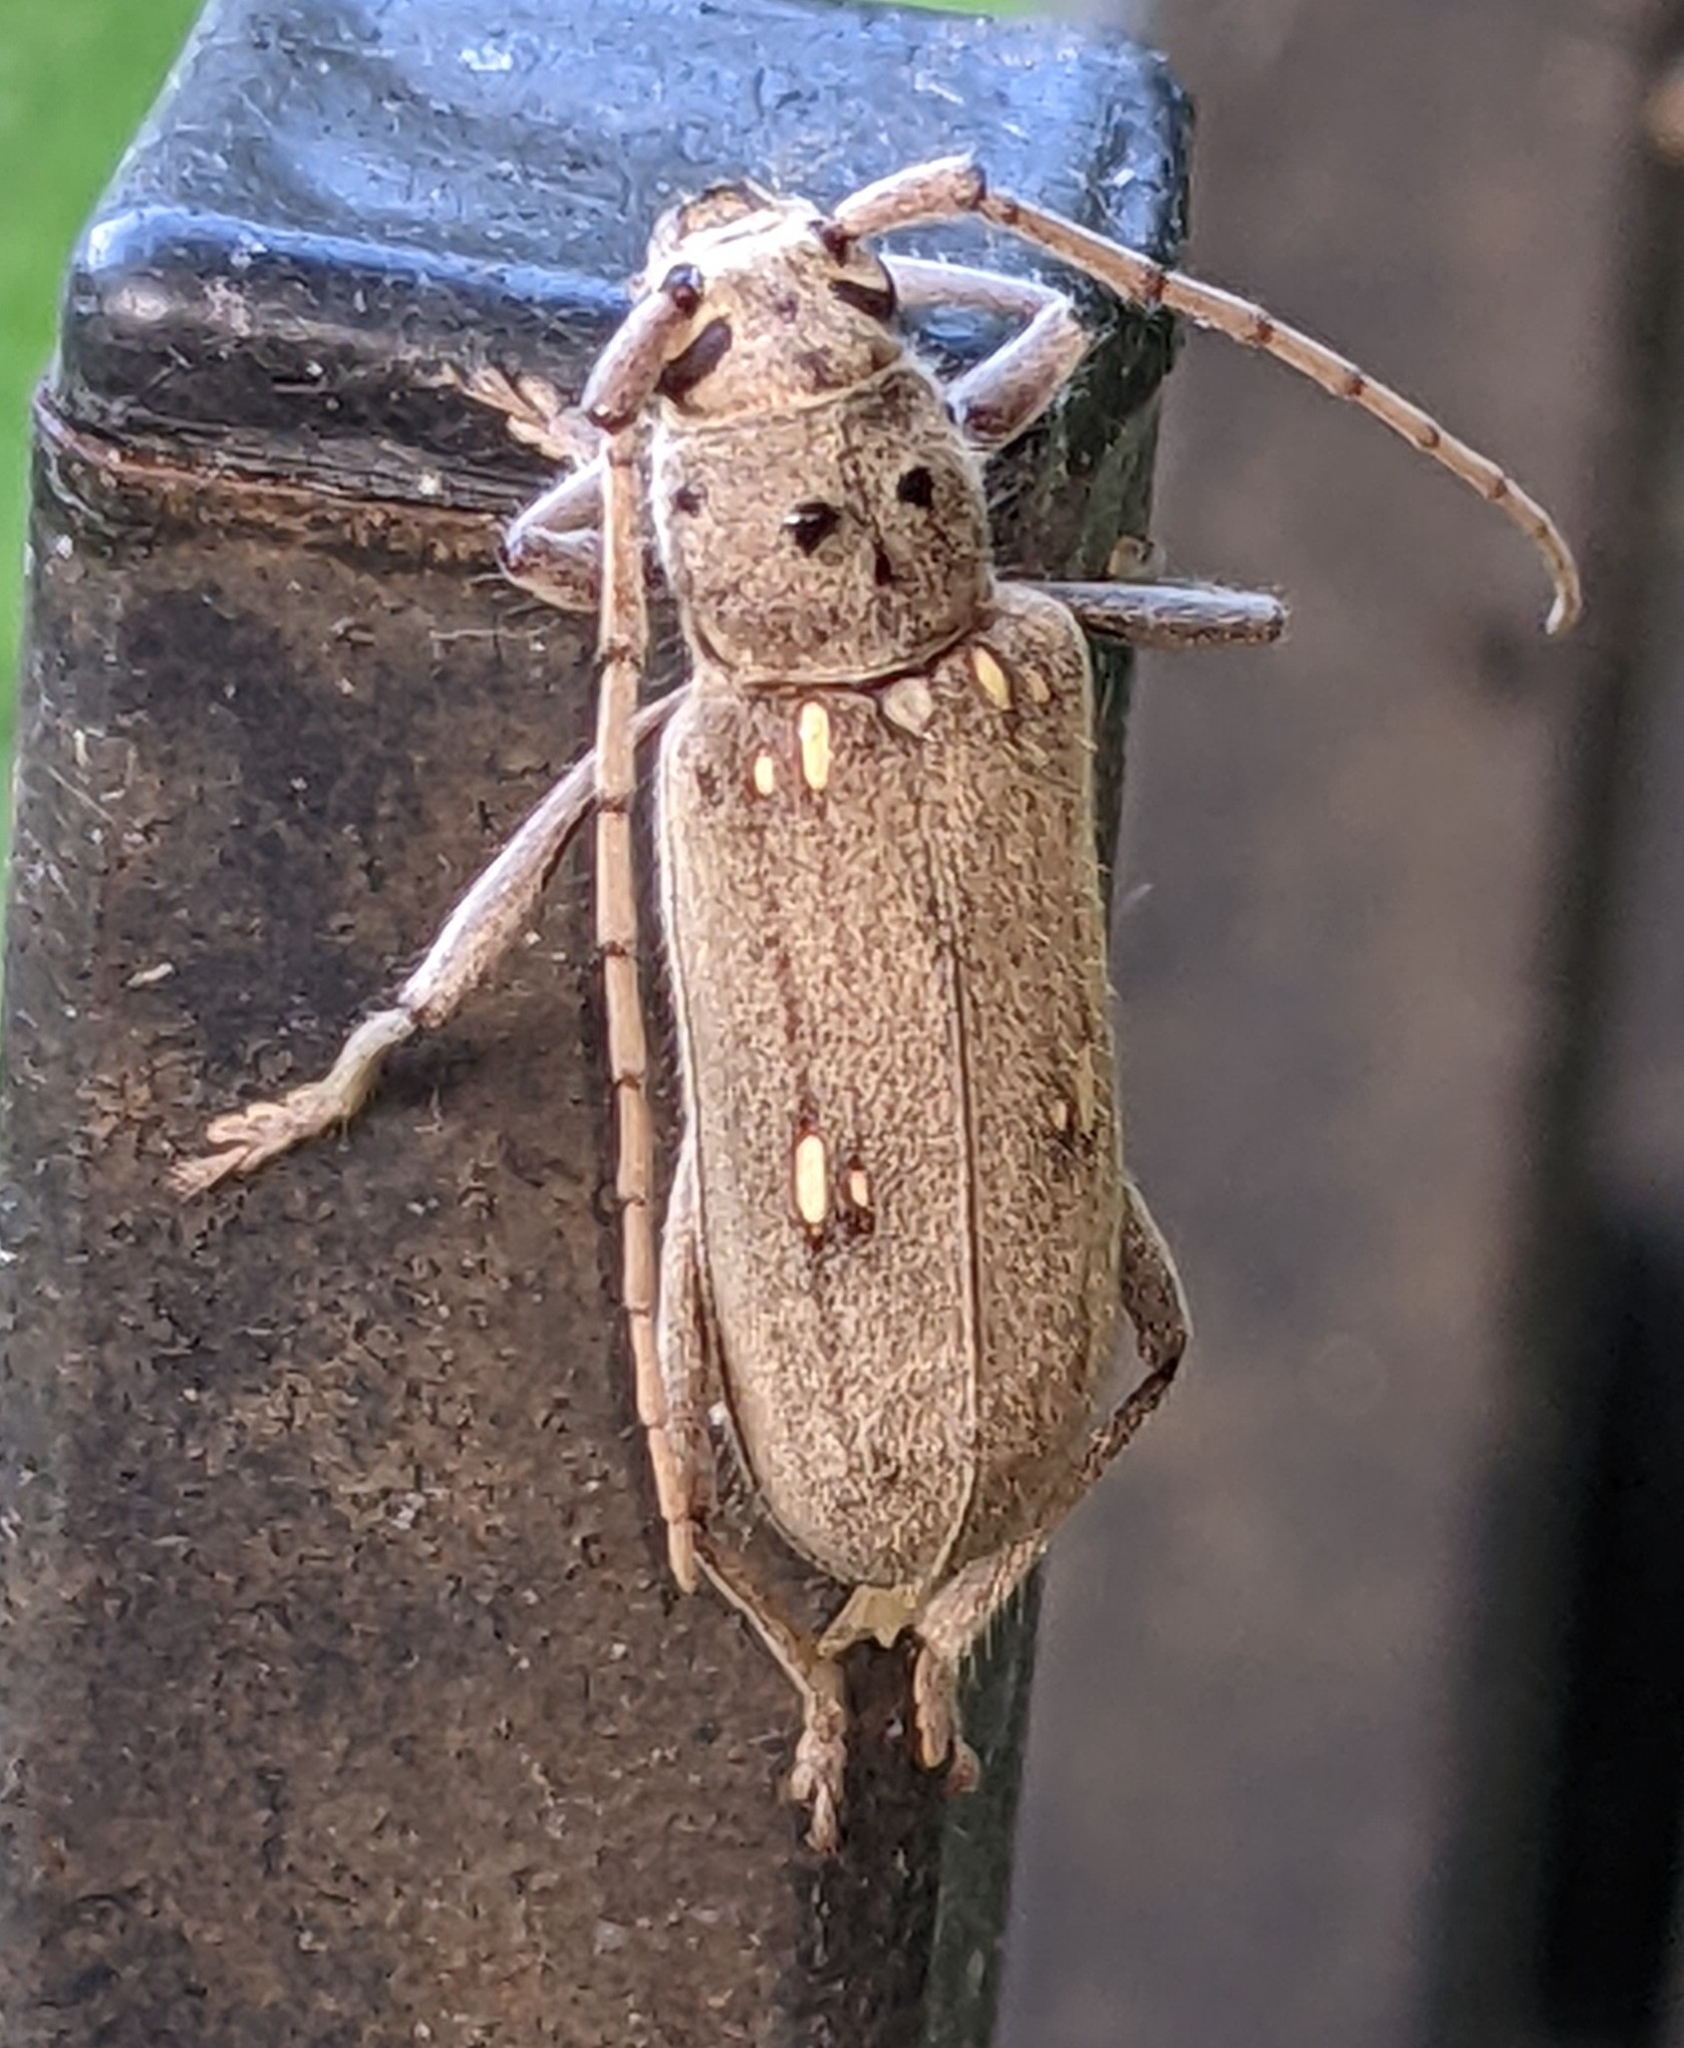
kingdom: Animalia
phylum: Arthropoda
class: Insecta
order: Coleoptera
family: Cerambycidae
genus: Eburia
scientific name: Eburia mutica
